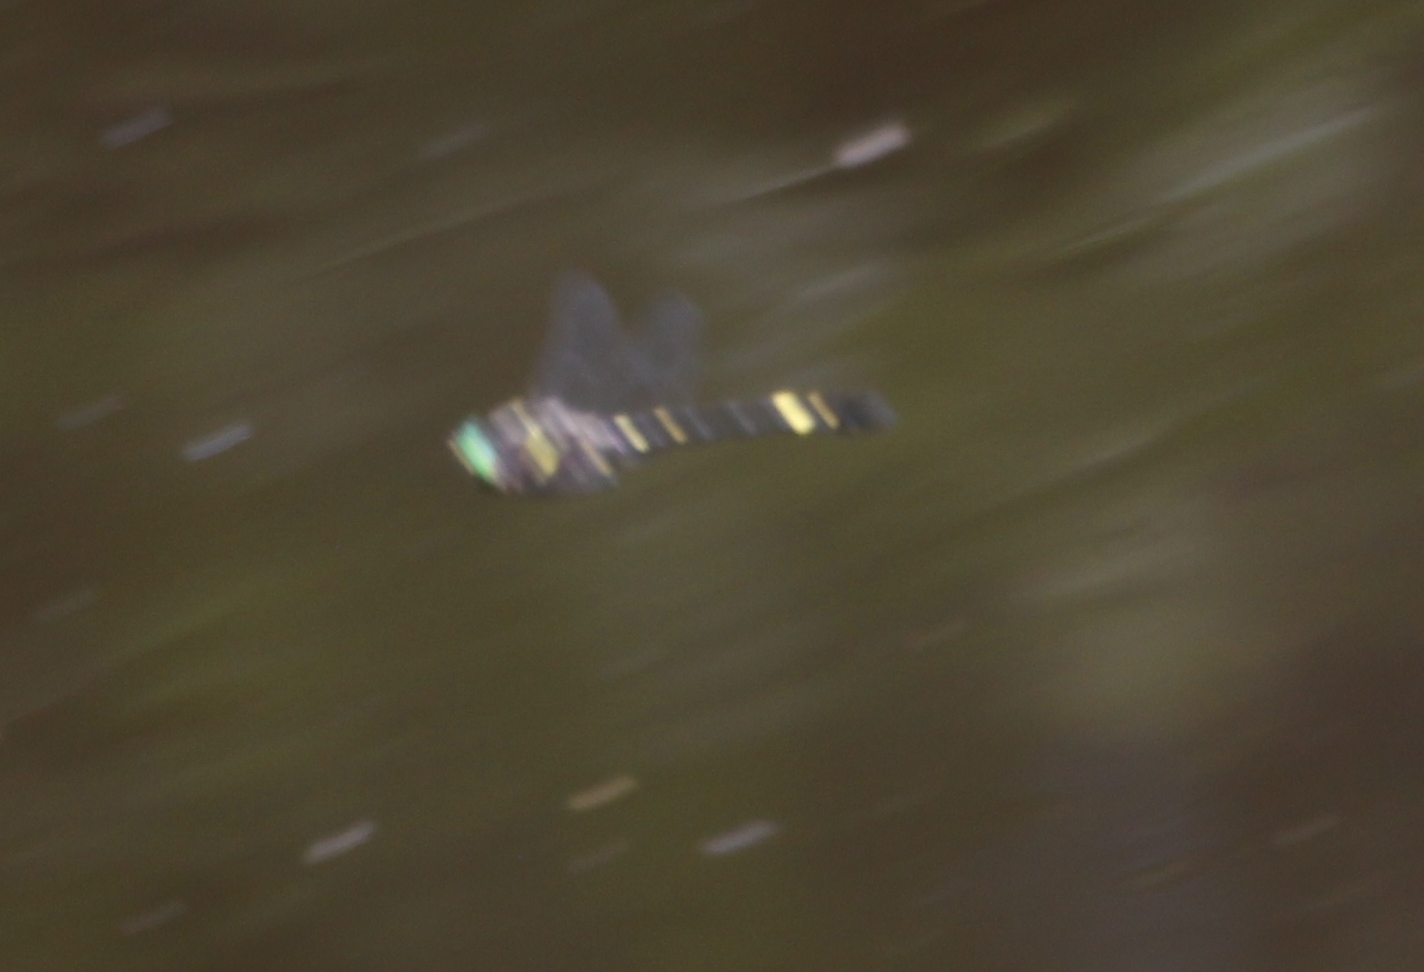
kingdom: Animalia
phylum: Arthropoda
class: Insecta
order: Odonata
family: Macromiidae
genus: Macromia
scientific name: Macromia illinoiensis
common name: Swift river cruiser
